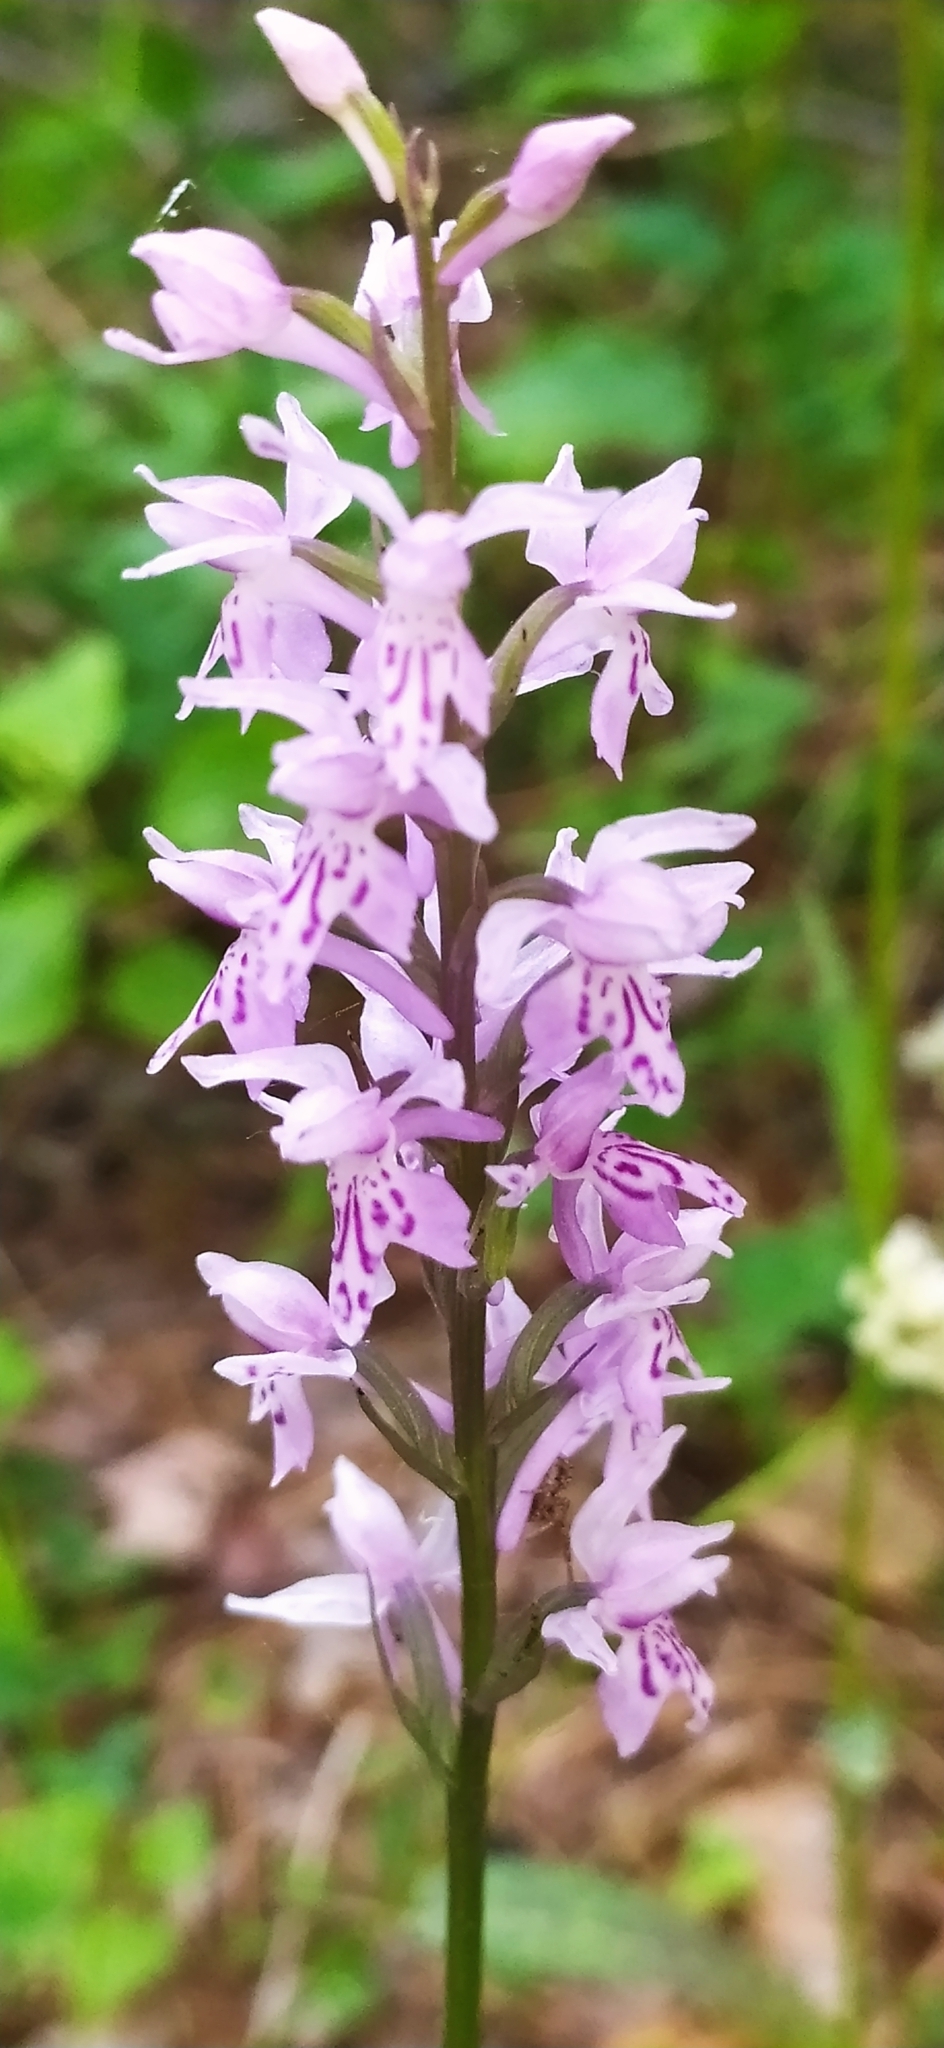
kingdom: Plantae
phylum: Tracheophyta
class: Liliopsida
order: Asparagales
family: Orchidaceae
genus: Dactylorhiza
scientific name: Dactylorhiza maculata
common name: Heath spotted-orchid
